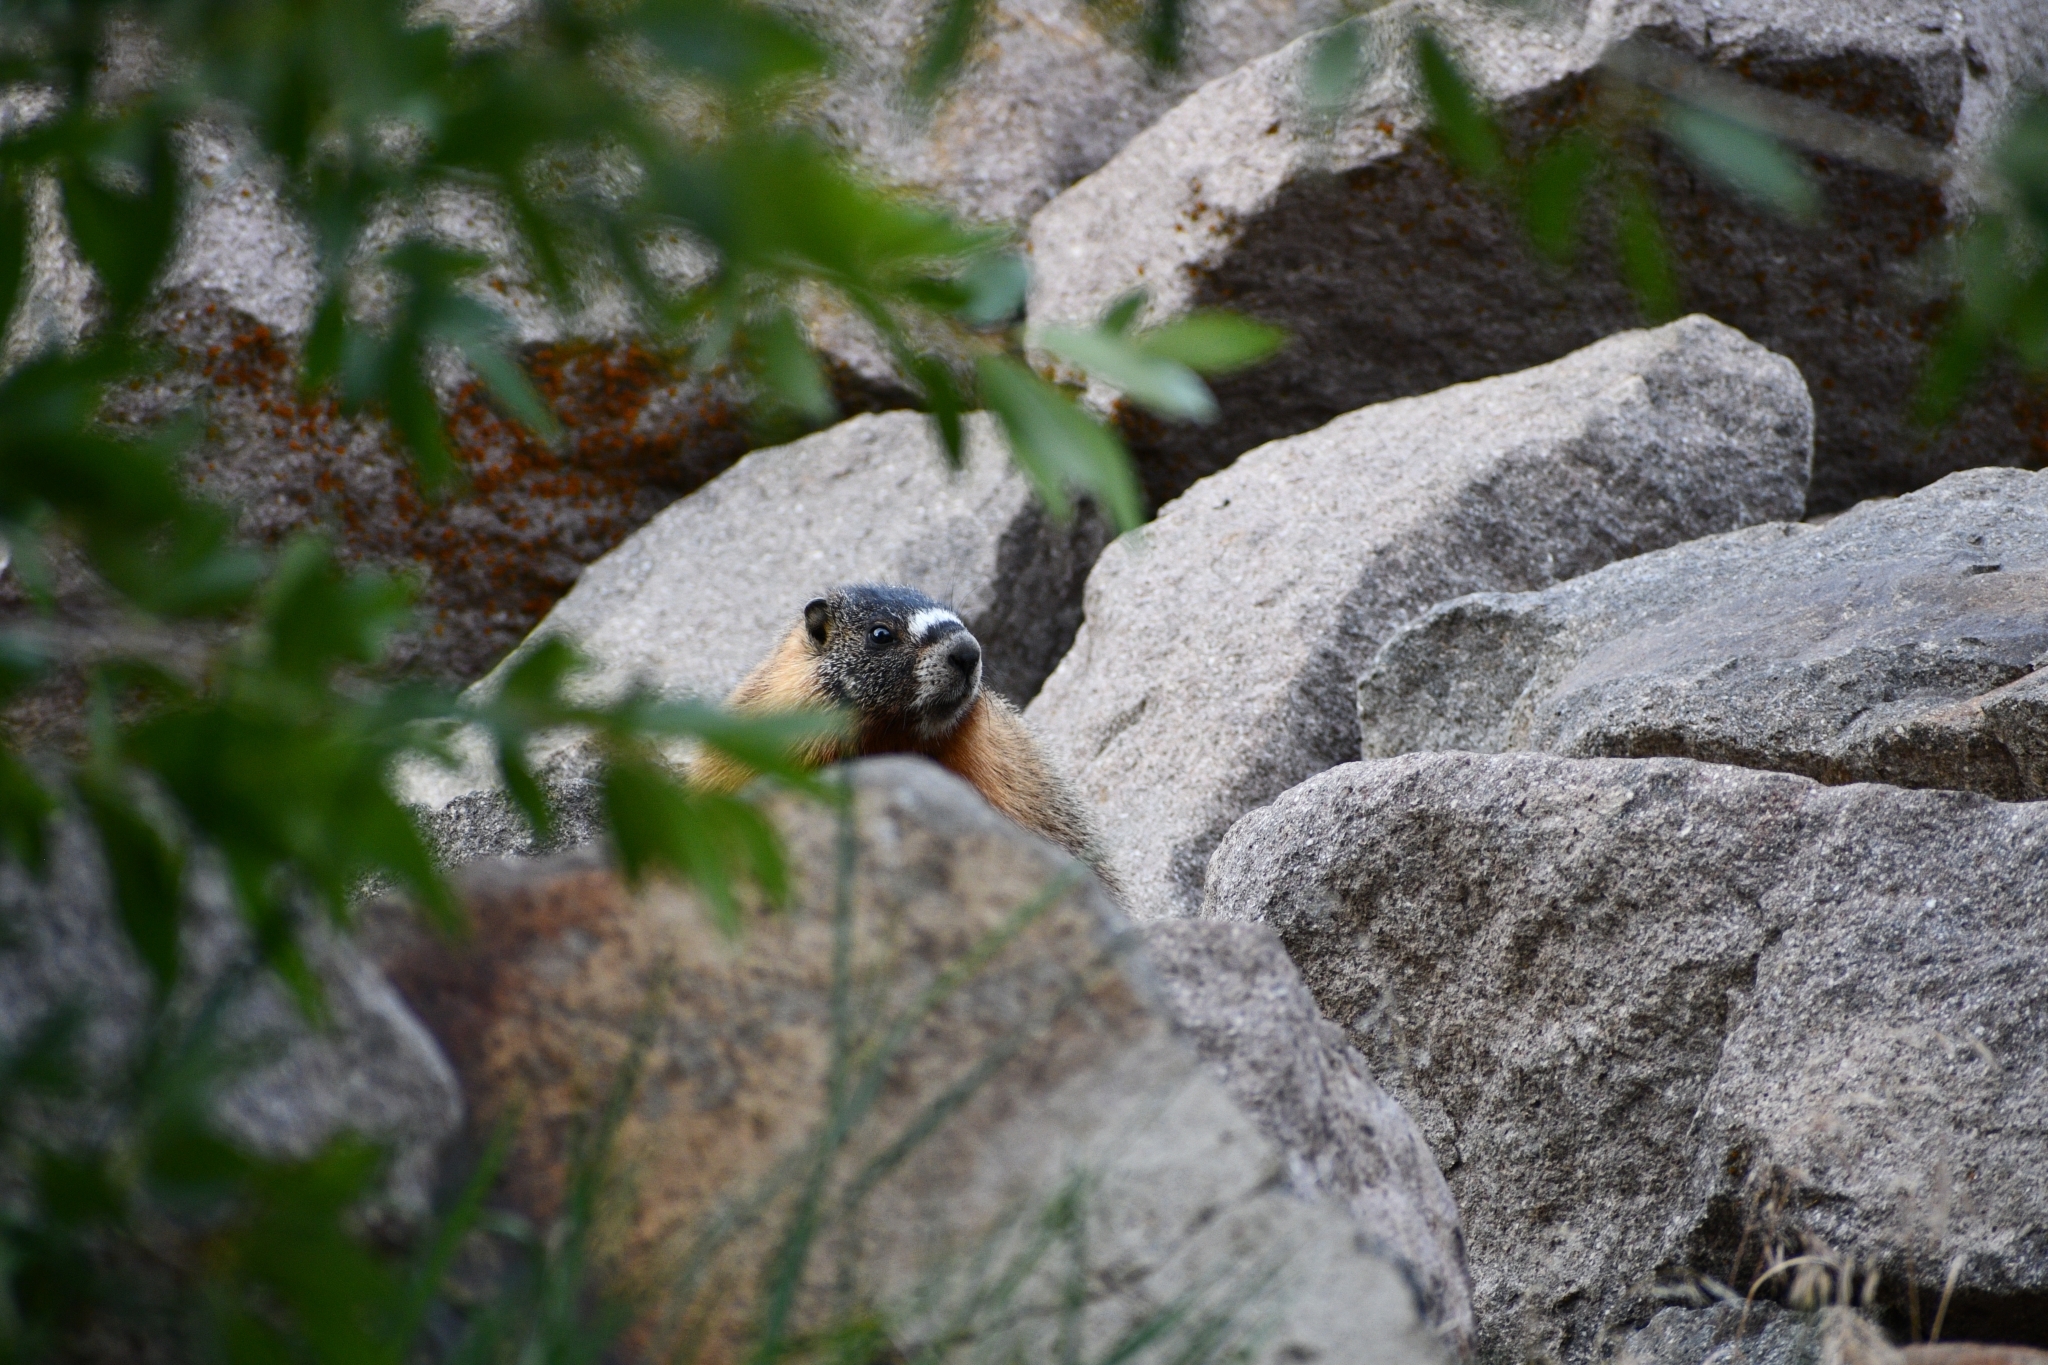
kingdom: Animalia
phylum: Chordata
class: Mammalia
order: Rodentia
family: Sciuridae
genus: Marmota
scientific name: Marmota flaviventris
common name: Yellow-bellied marmot
